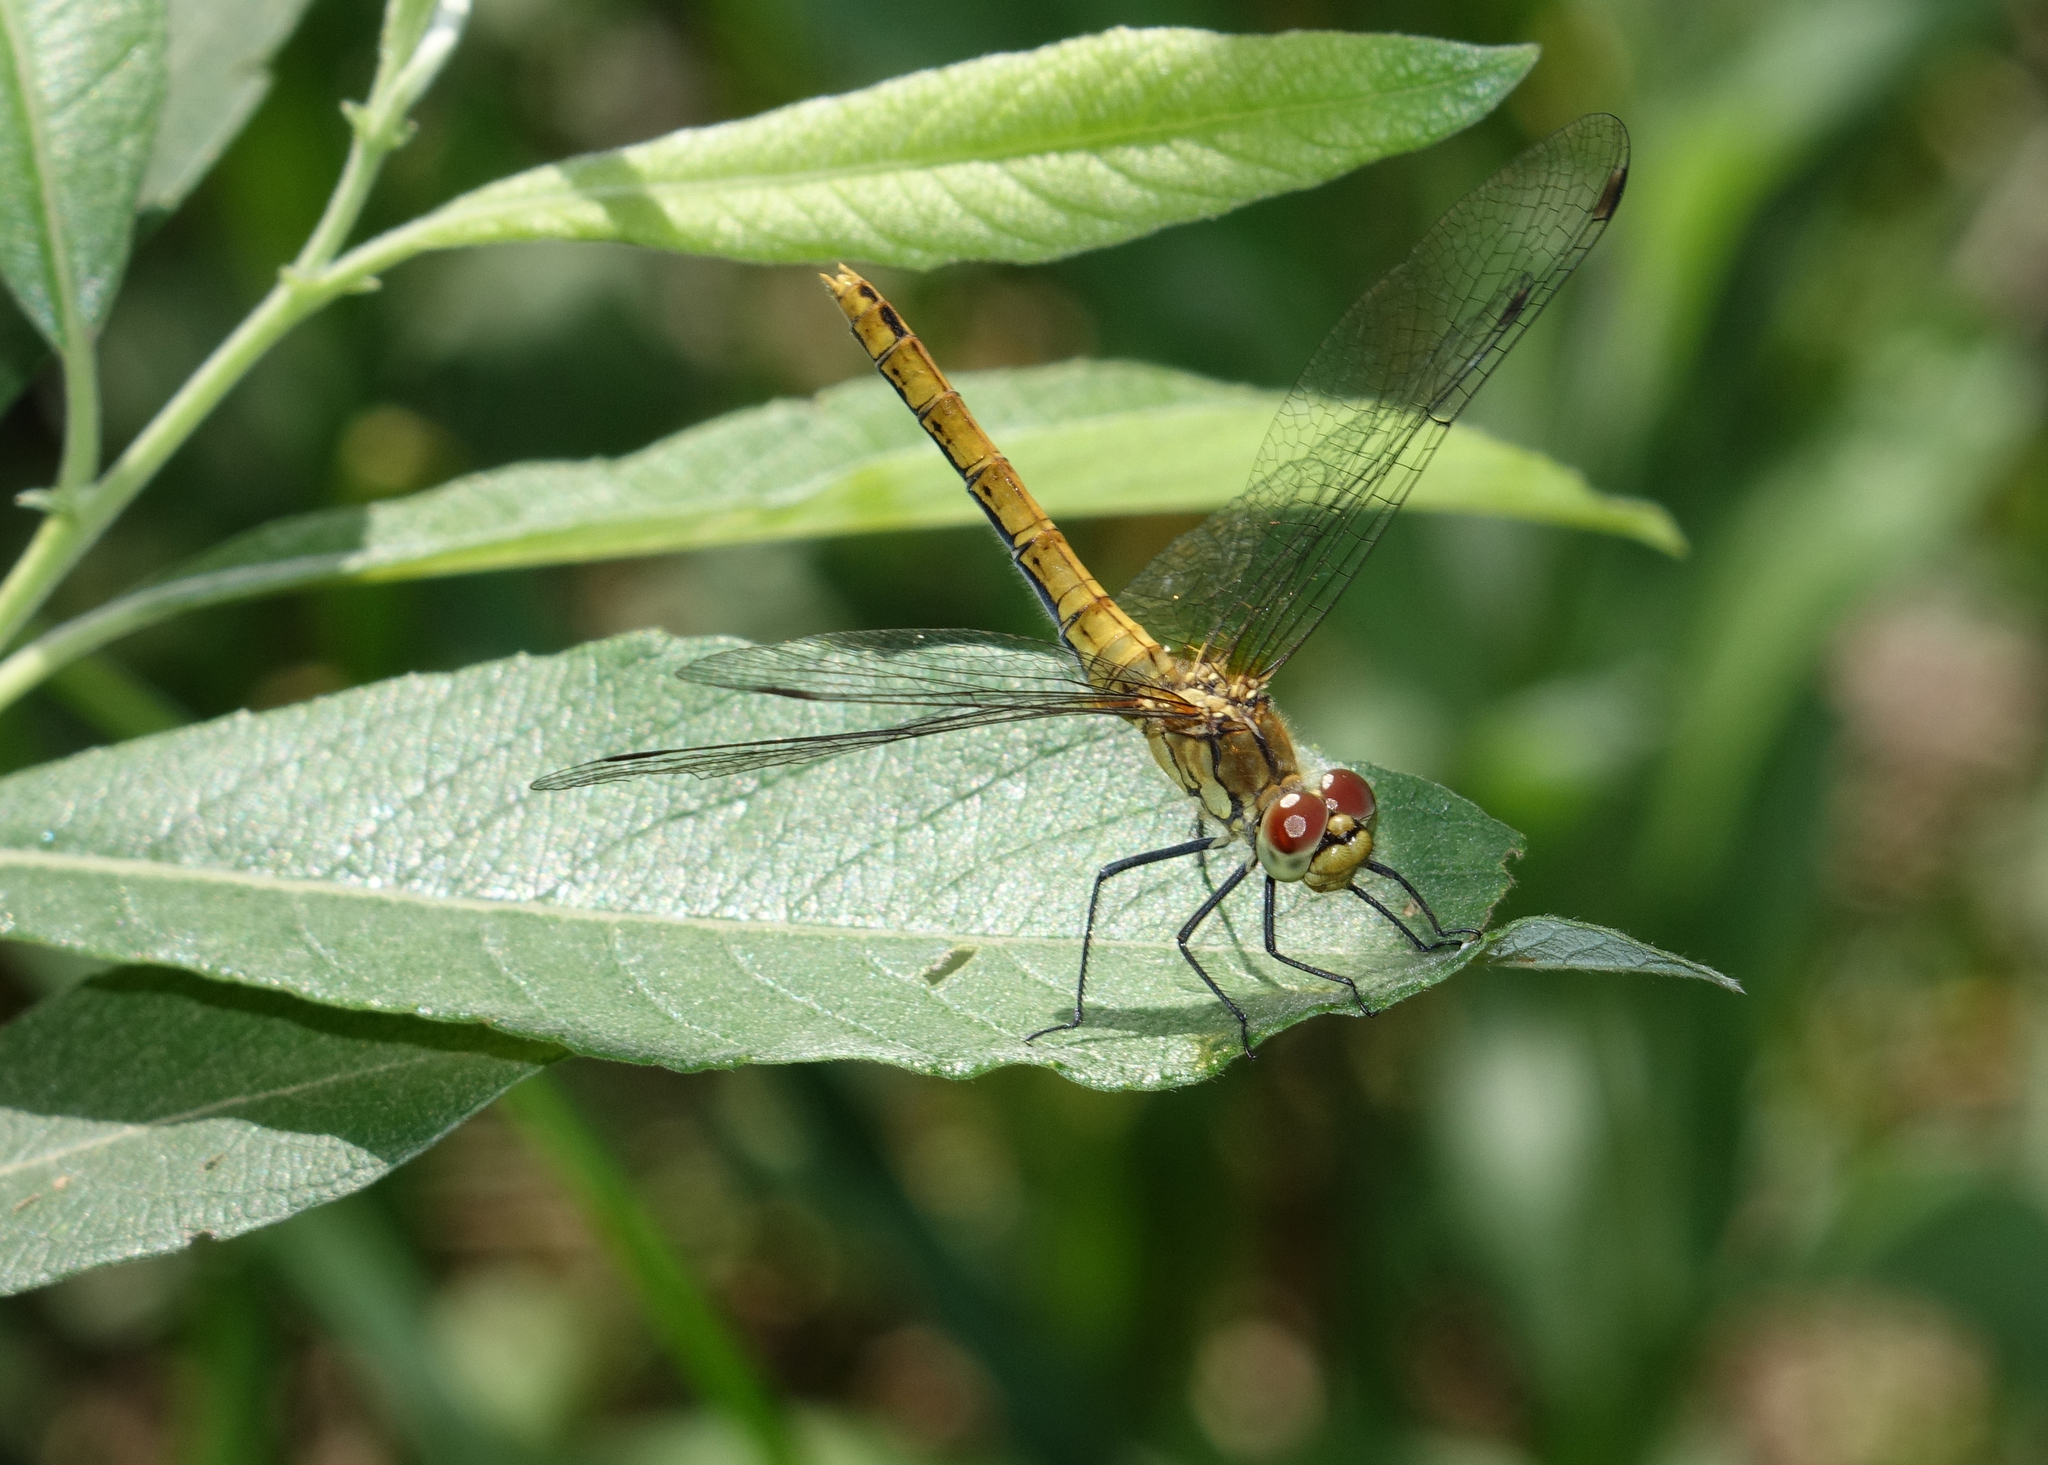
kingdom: Animalia
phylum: Arthropoda
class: Insecta
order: Odonata
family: Libellulidae
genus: Sympetrum
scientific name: Sympetrum sanguineum
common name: Ruddy darter
